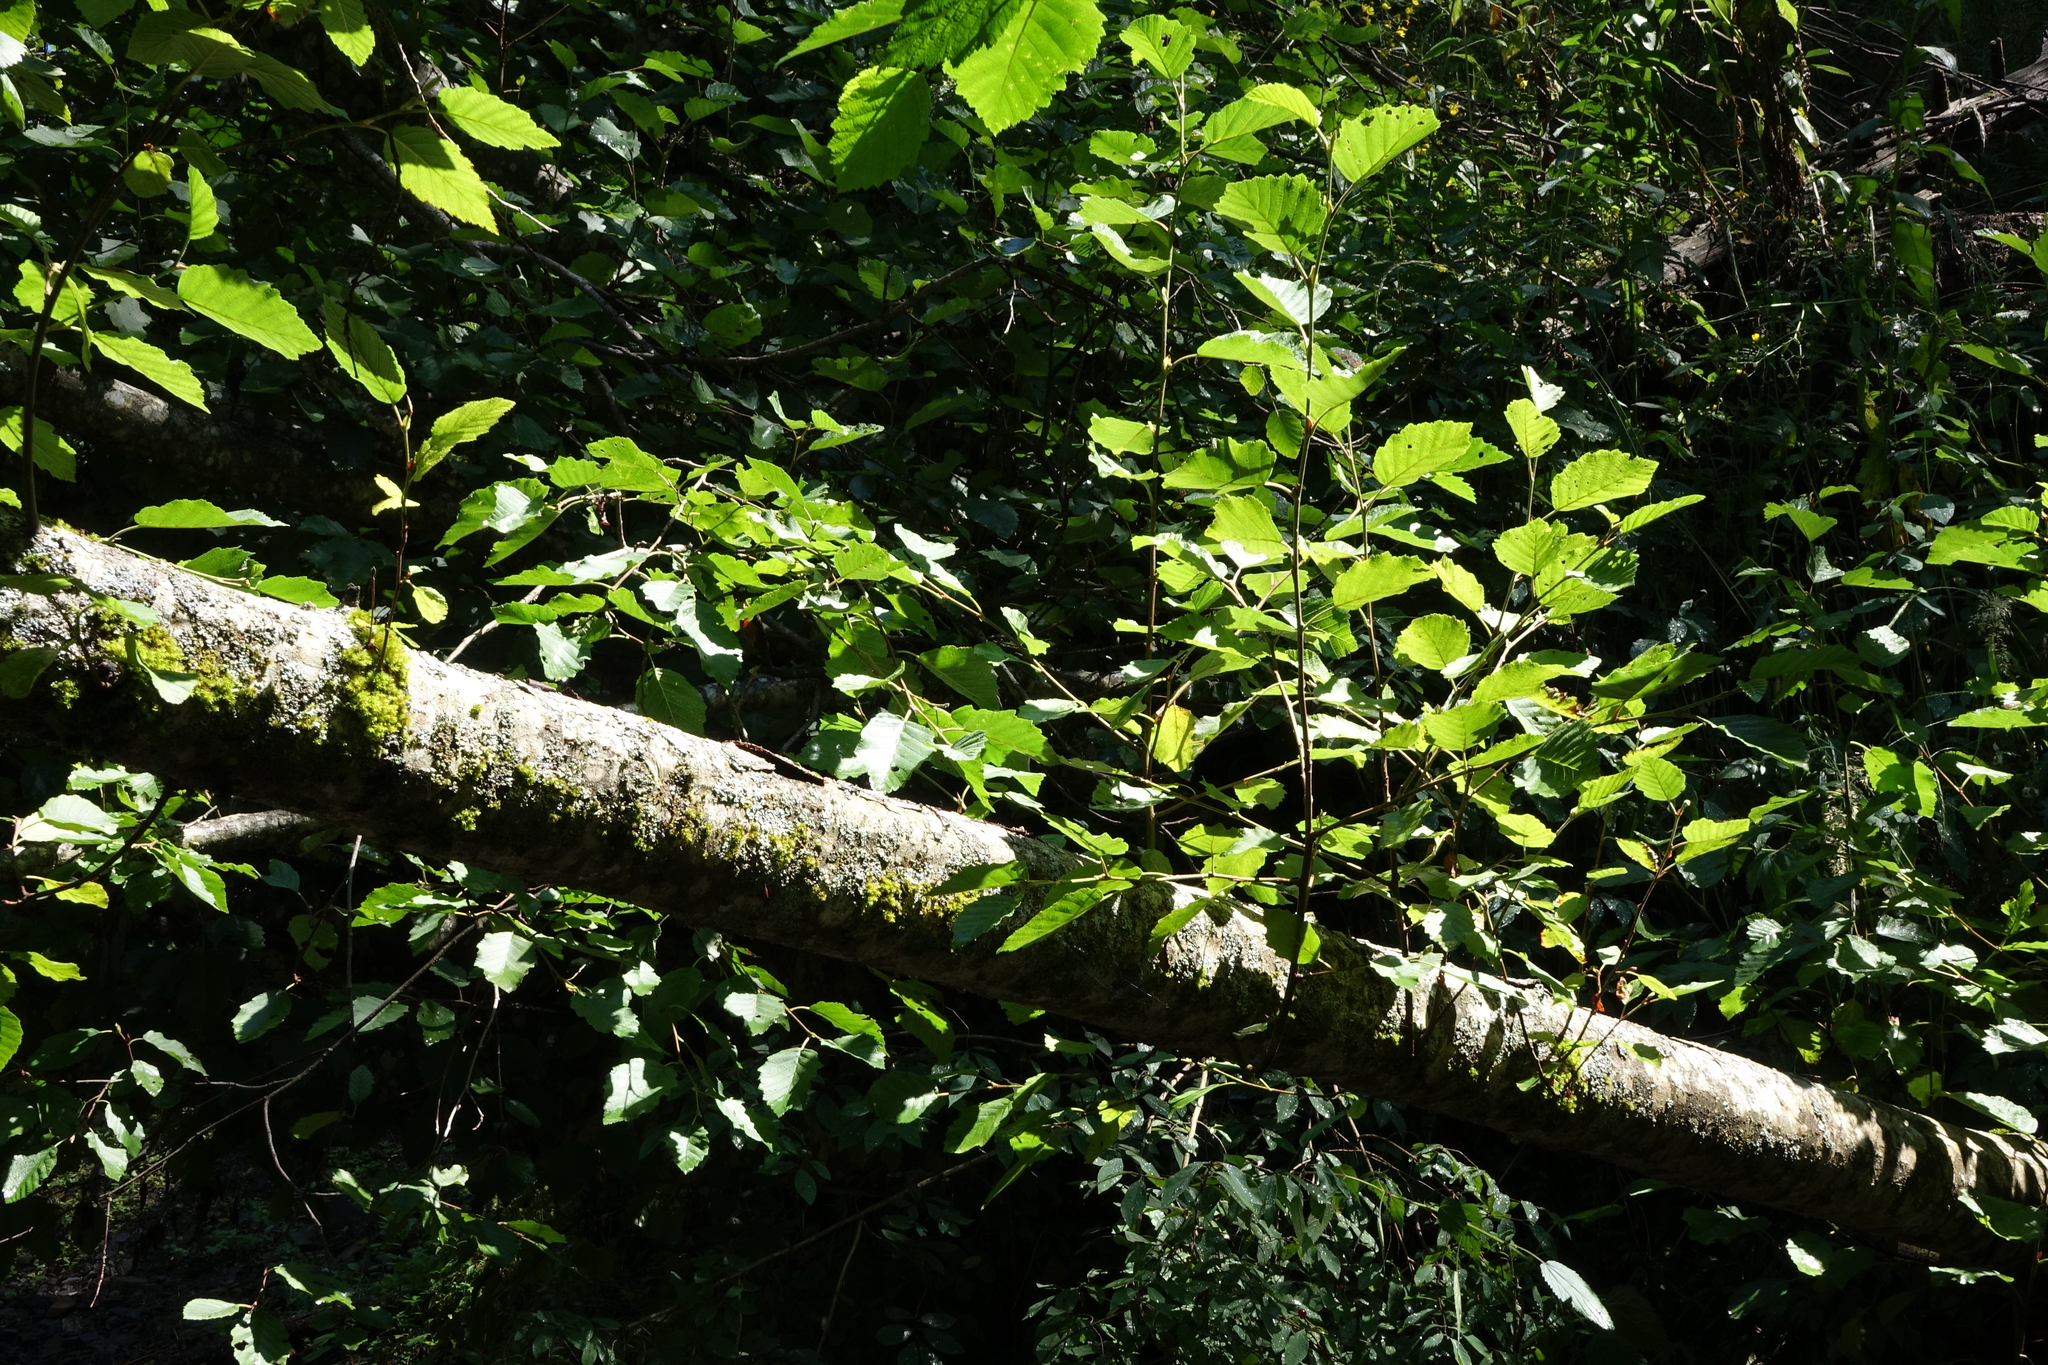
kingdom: Plantae
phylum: Tracheophyta
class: Magnoliopsida
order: Fagales
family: Betulaceae
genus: Alnus
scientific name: Alnus incana
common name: Grey alder
